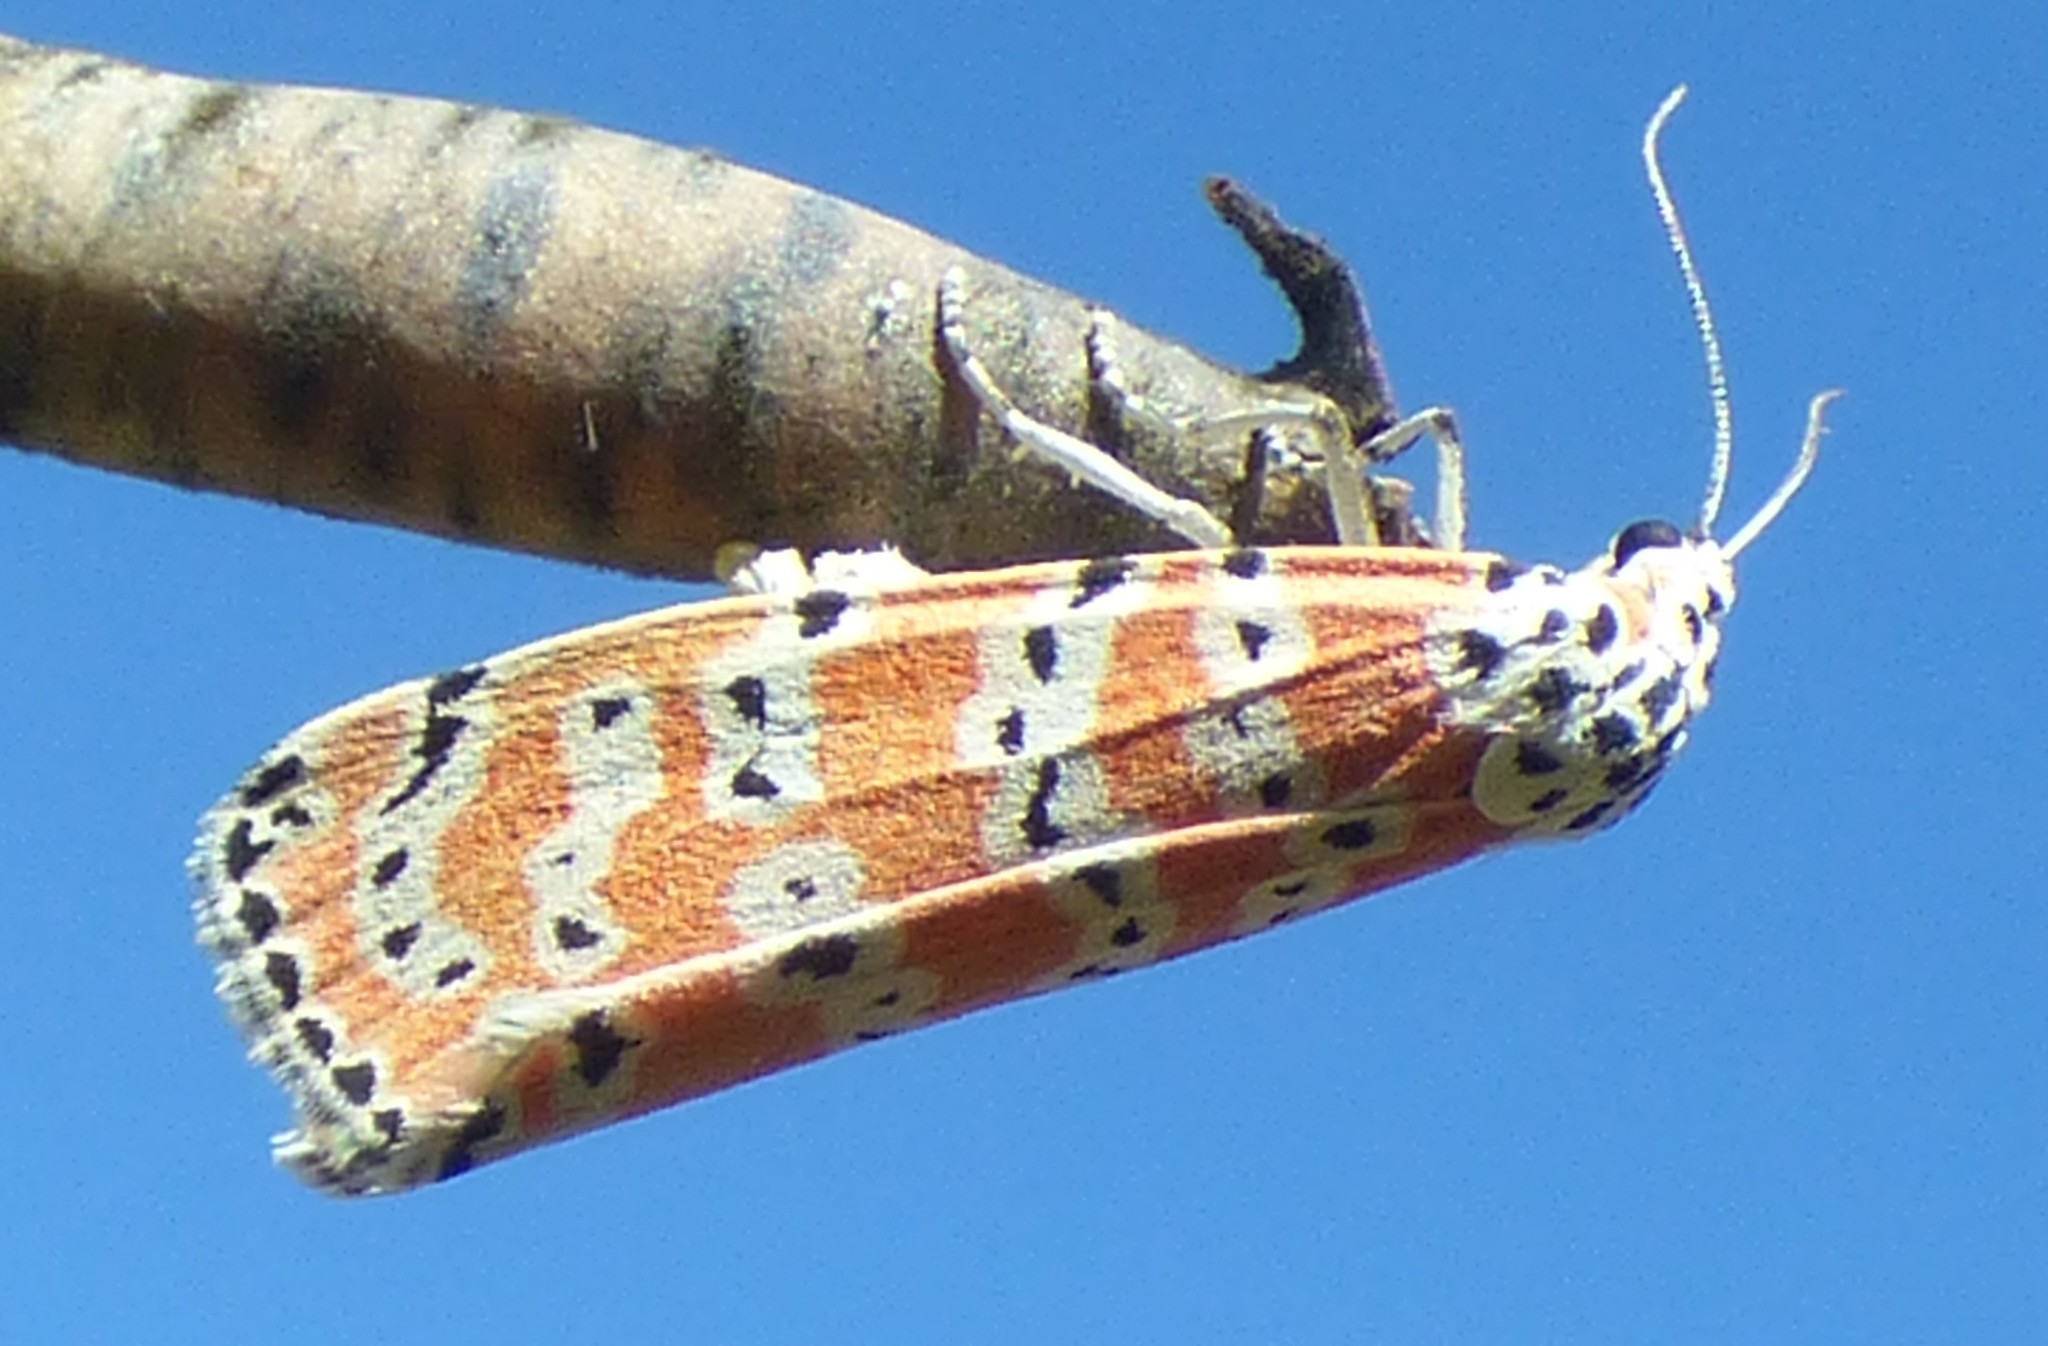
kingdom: Animalia
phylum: Arthropoda
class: Insecta
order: Lepidoptera
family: Erebidae
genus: Utetheisa
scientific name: Utetheisa ornatrix
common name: Beautiful utetheisa
